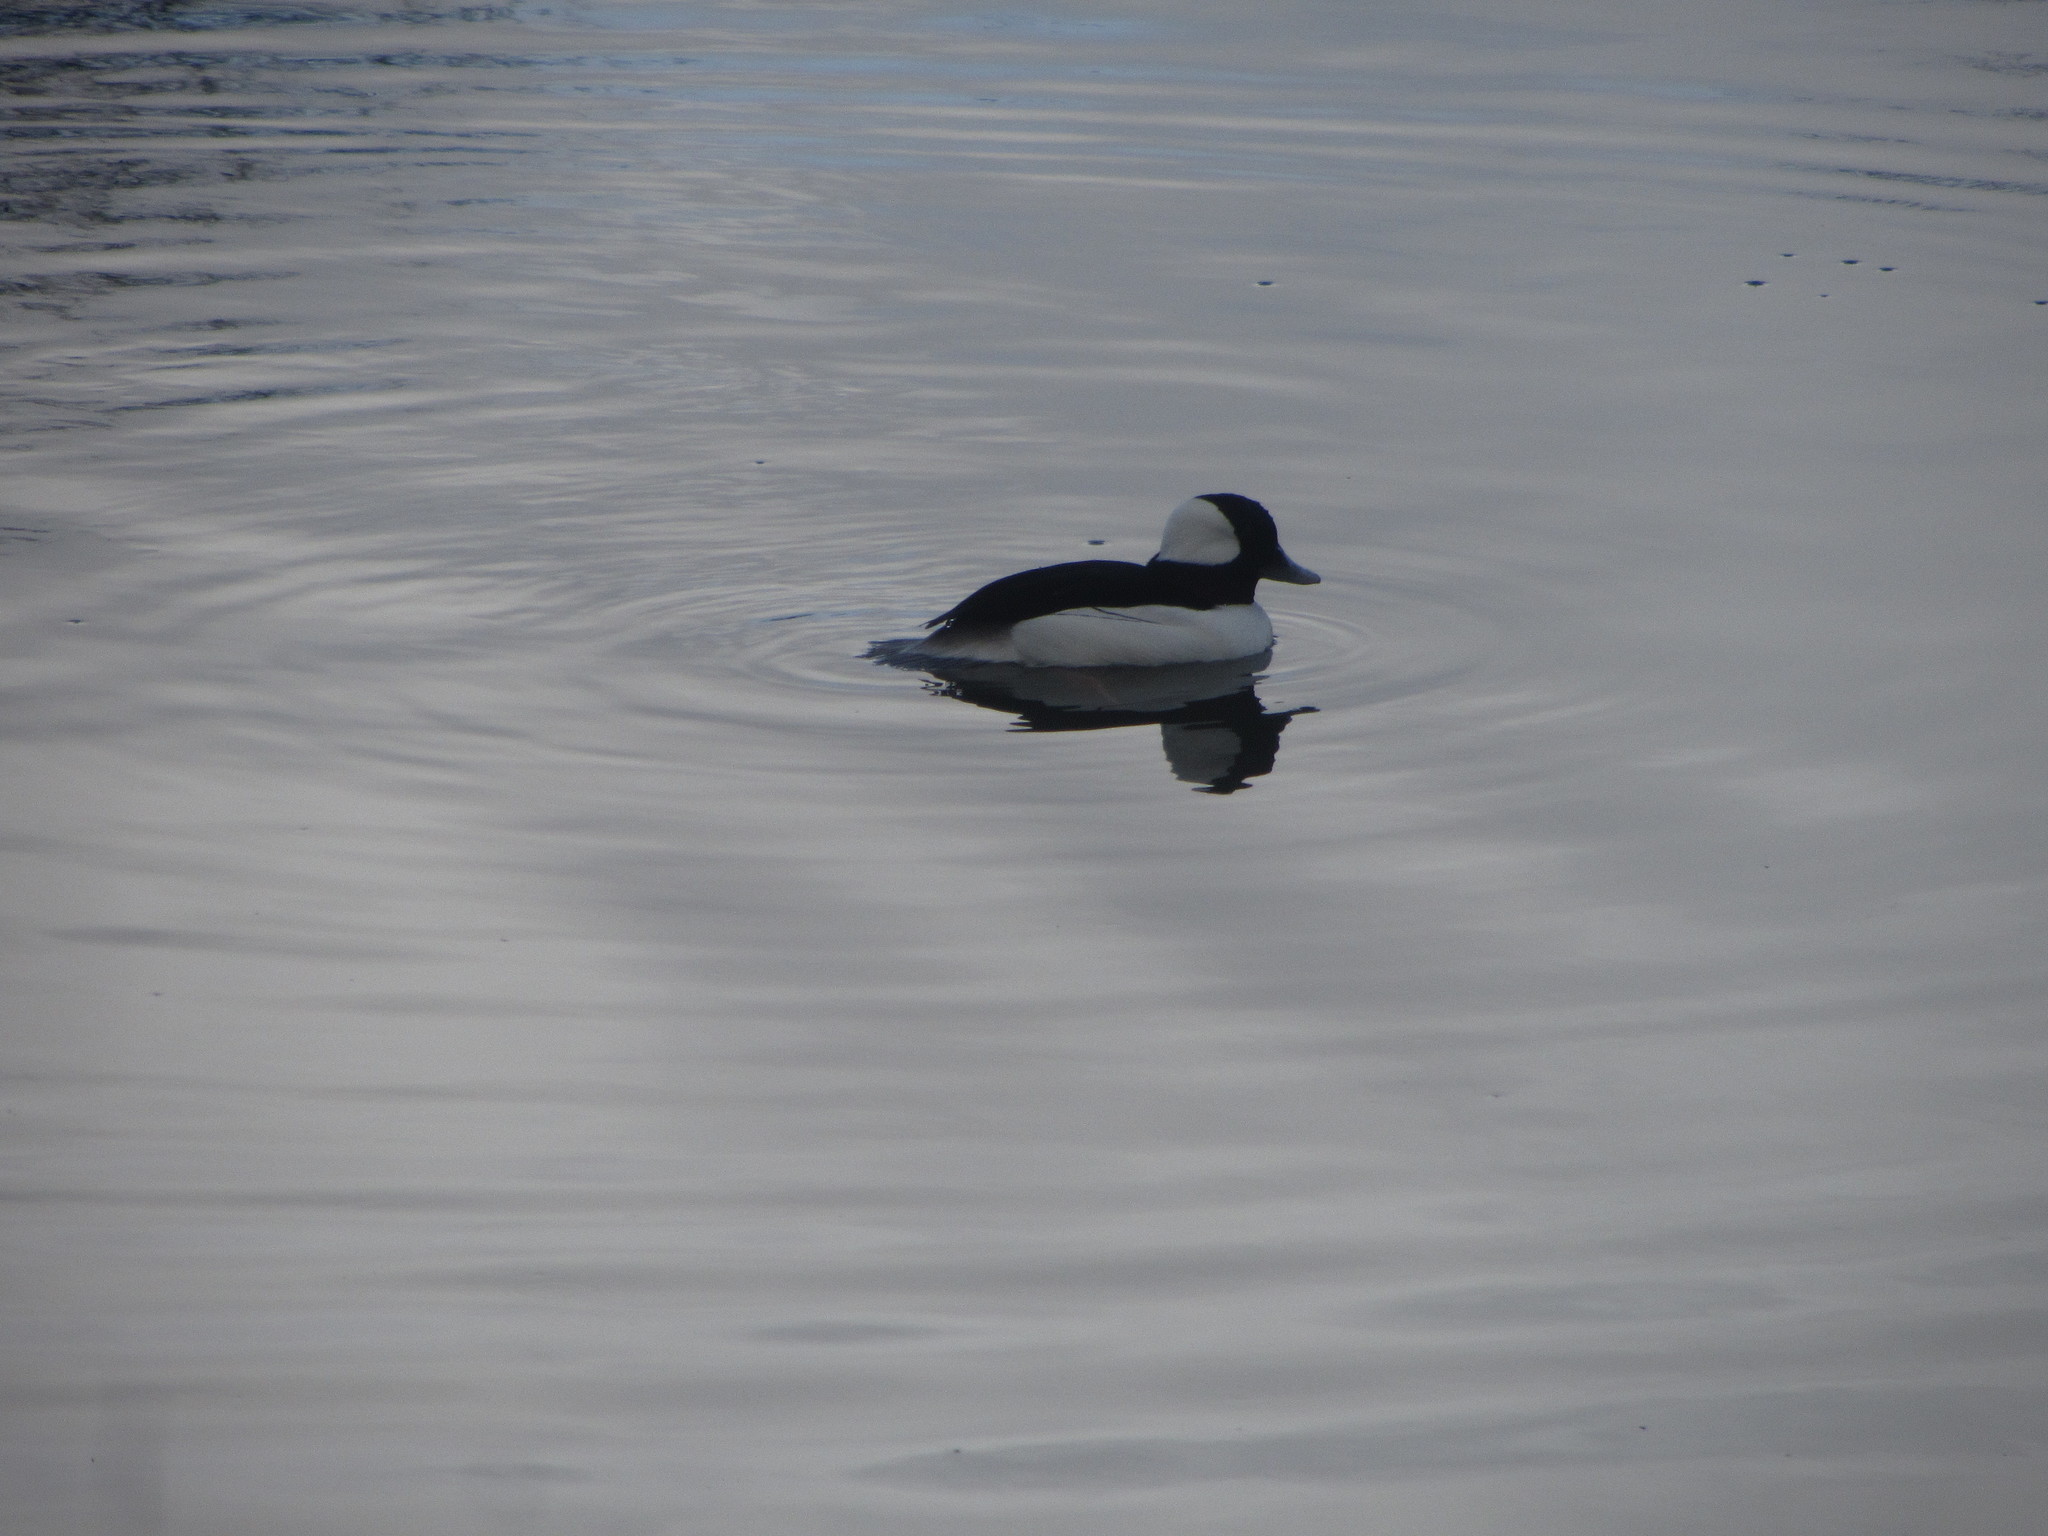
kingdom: Animalia
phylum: Chordata
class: Aves
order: Anseriformes
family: Anatidae
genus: Bucephala
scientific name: Bucephala albeola
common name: Bufflehead
